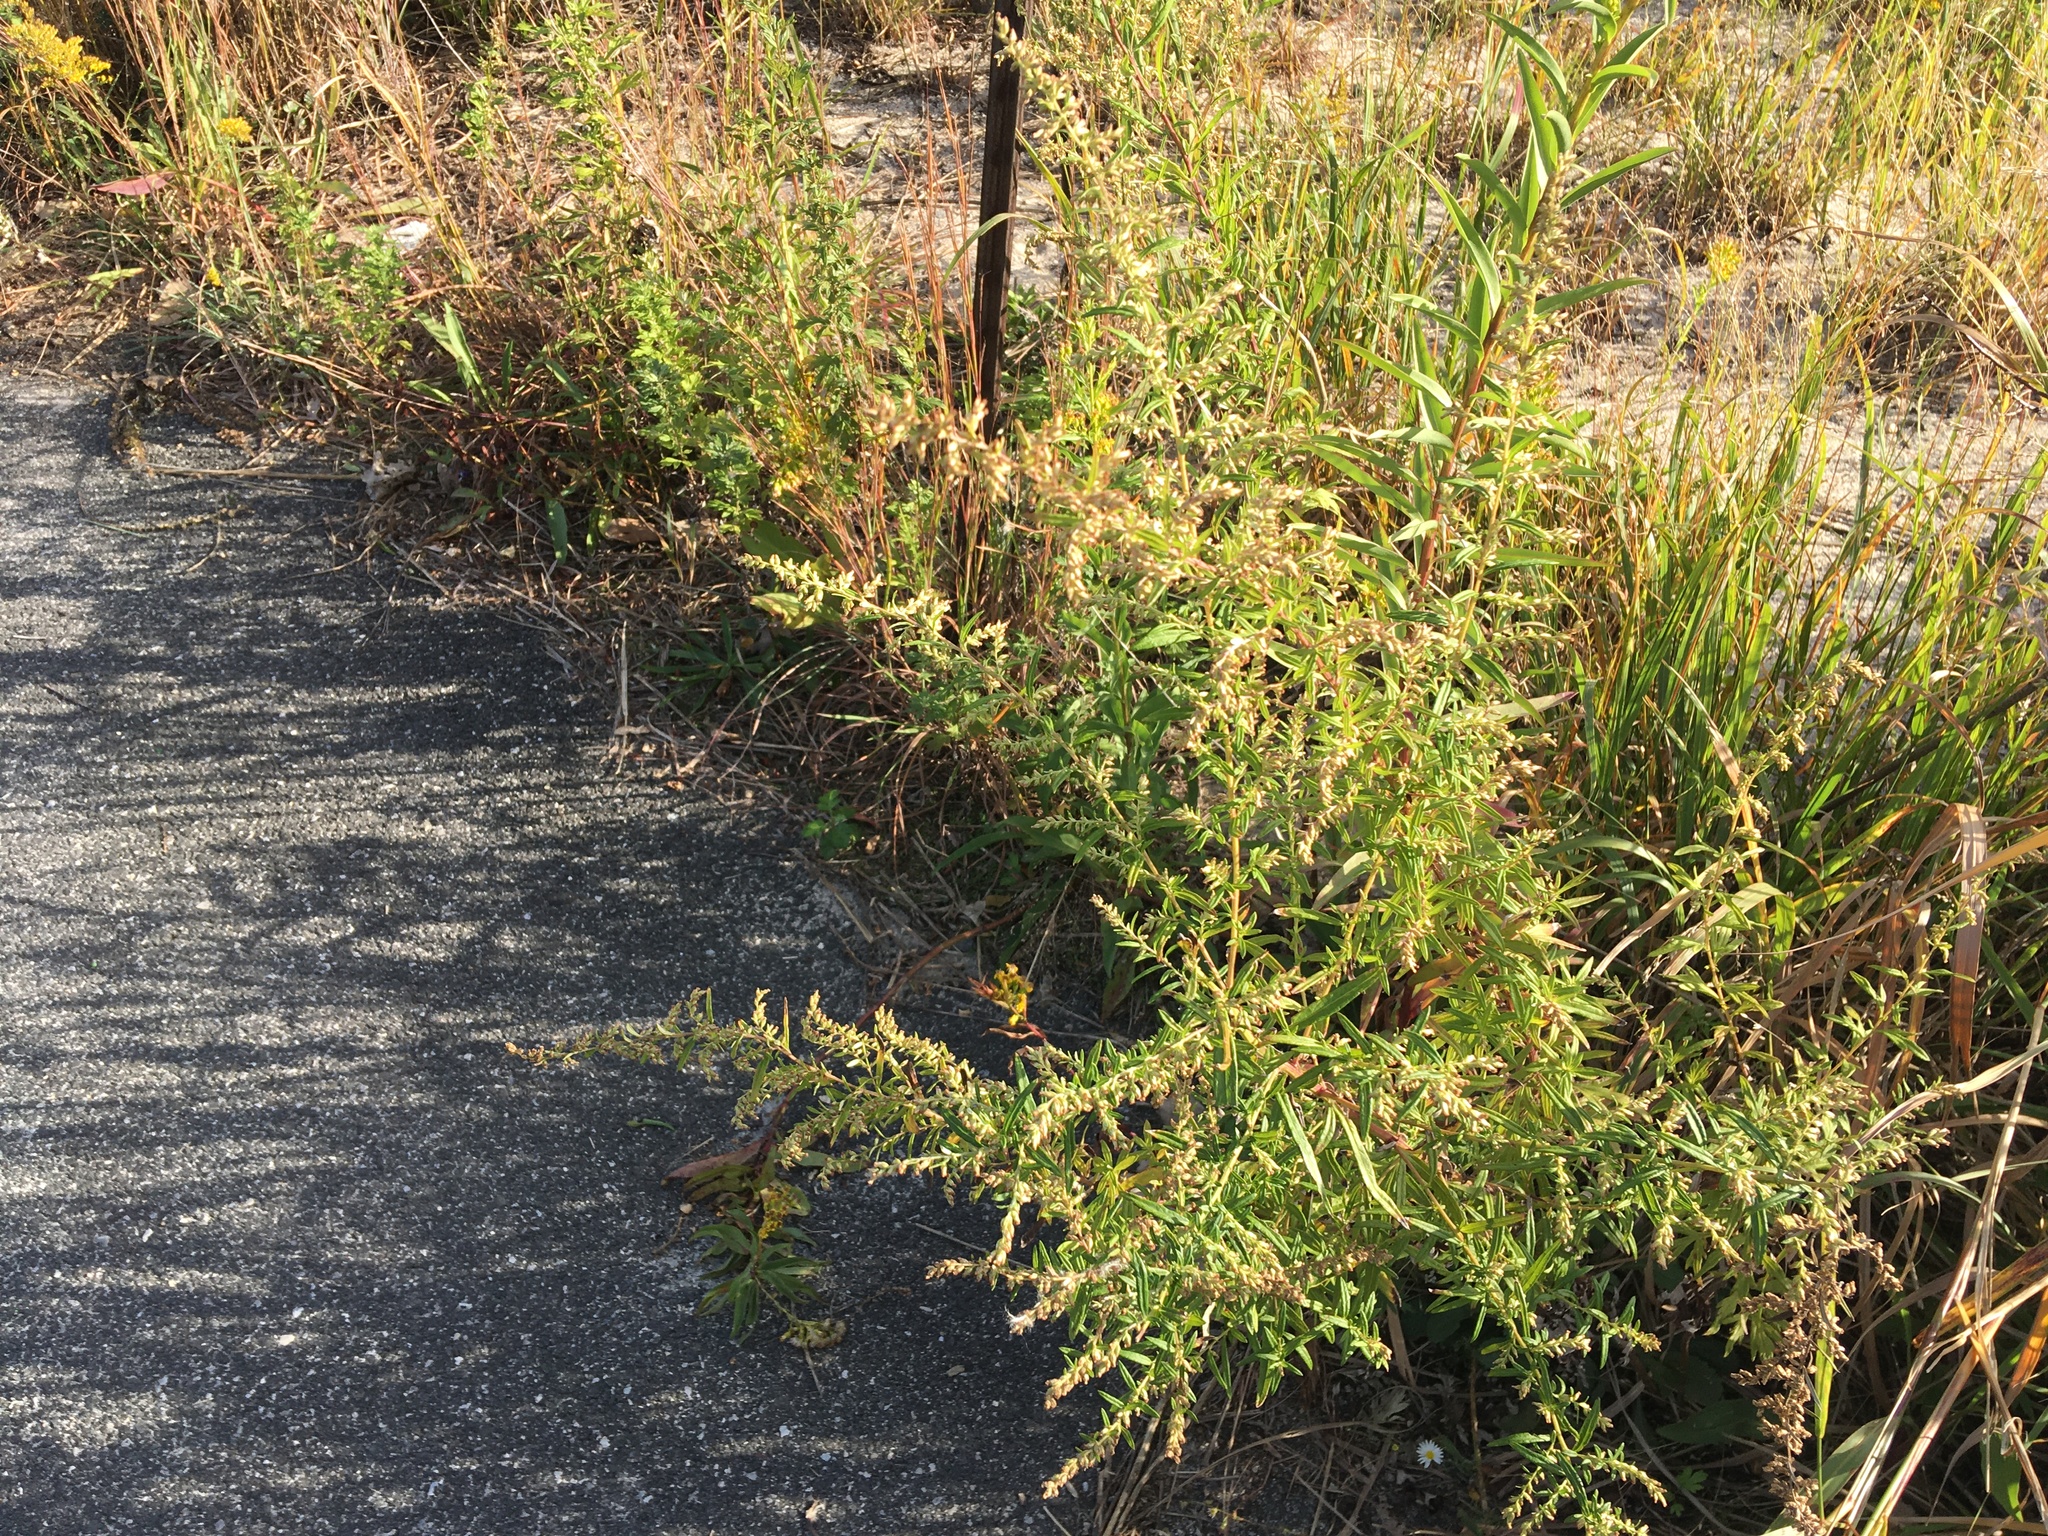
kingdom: Plantae
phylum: Tracheophyta
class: Magnoliopsida
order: Asterales
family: Asteraceae
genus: Artemisia
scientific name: Artemisia vulgaris
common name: Mugwort
